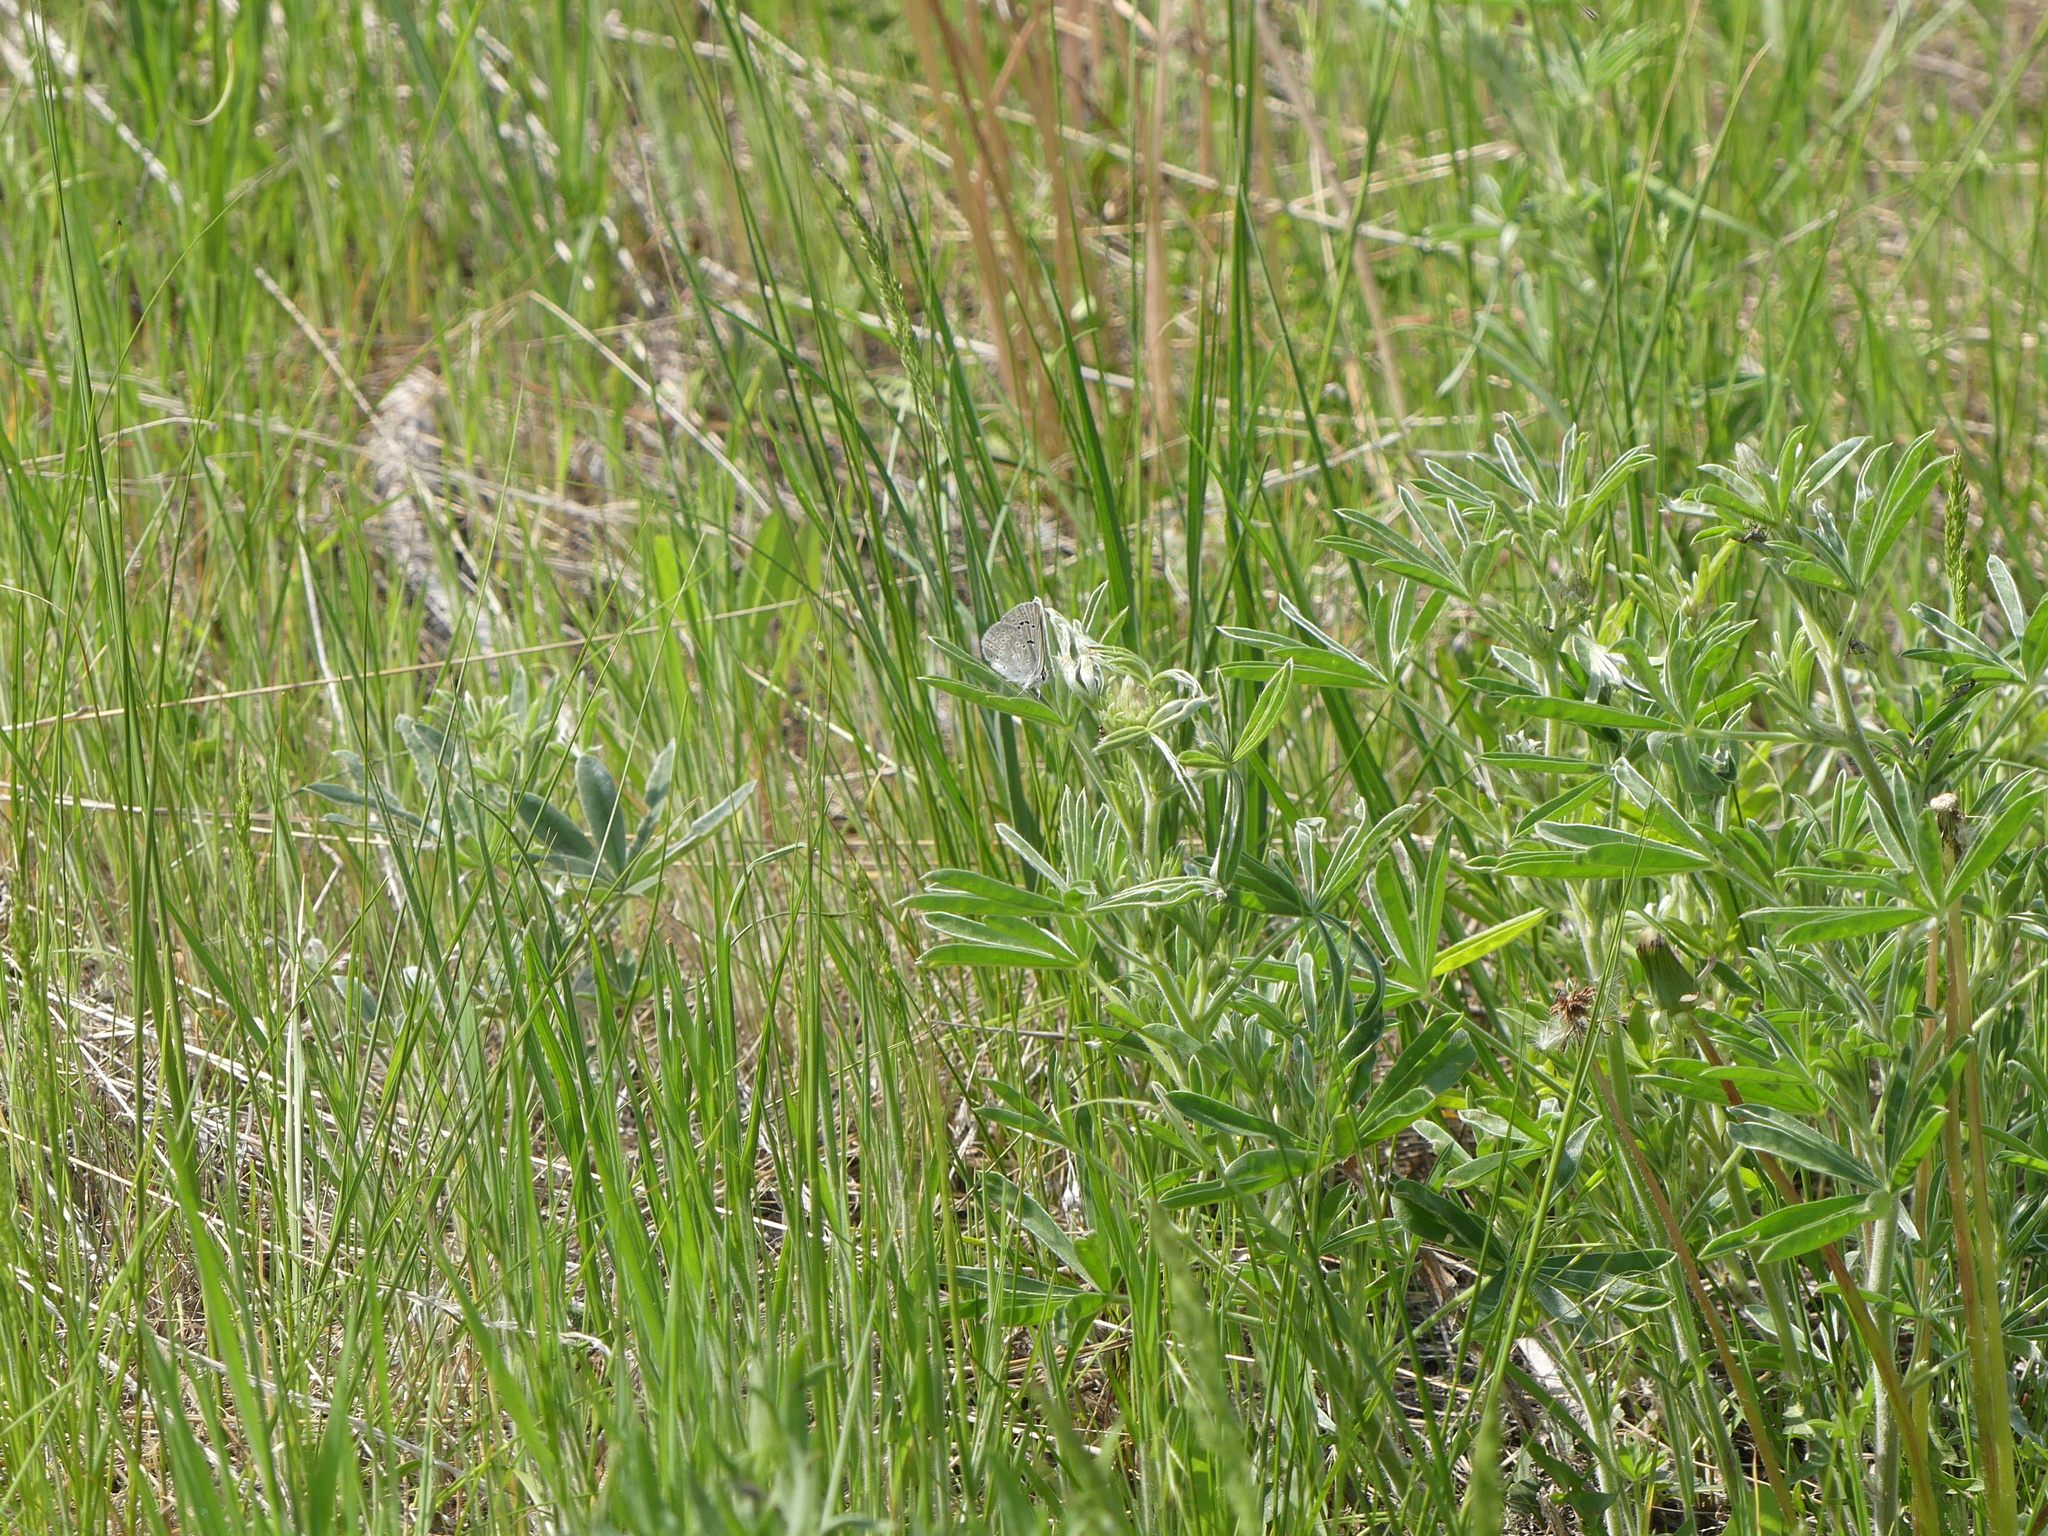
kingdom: Animalia
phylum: Arthropoda
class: Insecta
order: Lepidoptera
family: Lycaenidae
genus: Icaricia
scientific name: Icaricia icarioides
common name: Boisduval's blue
